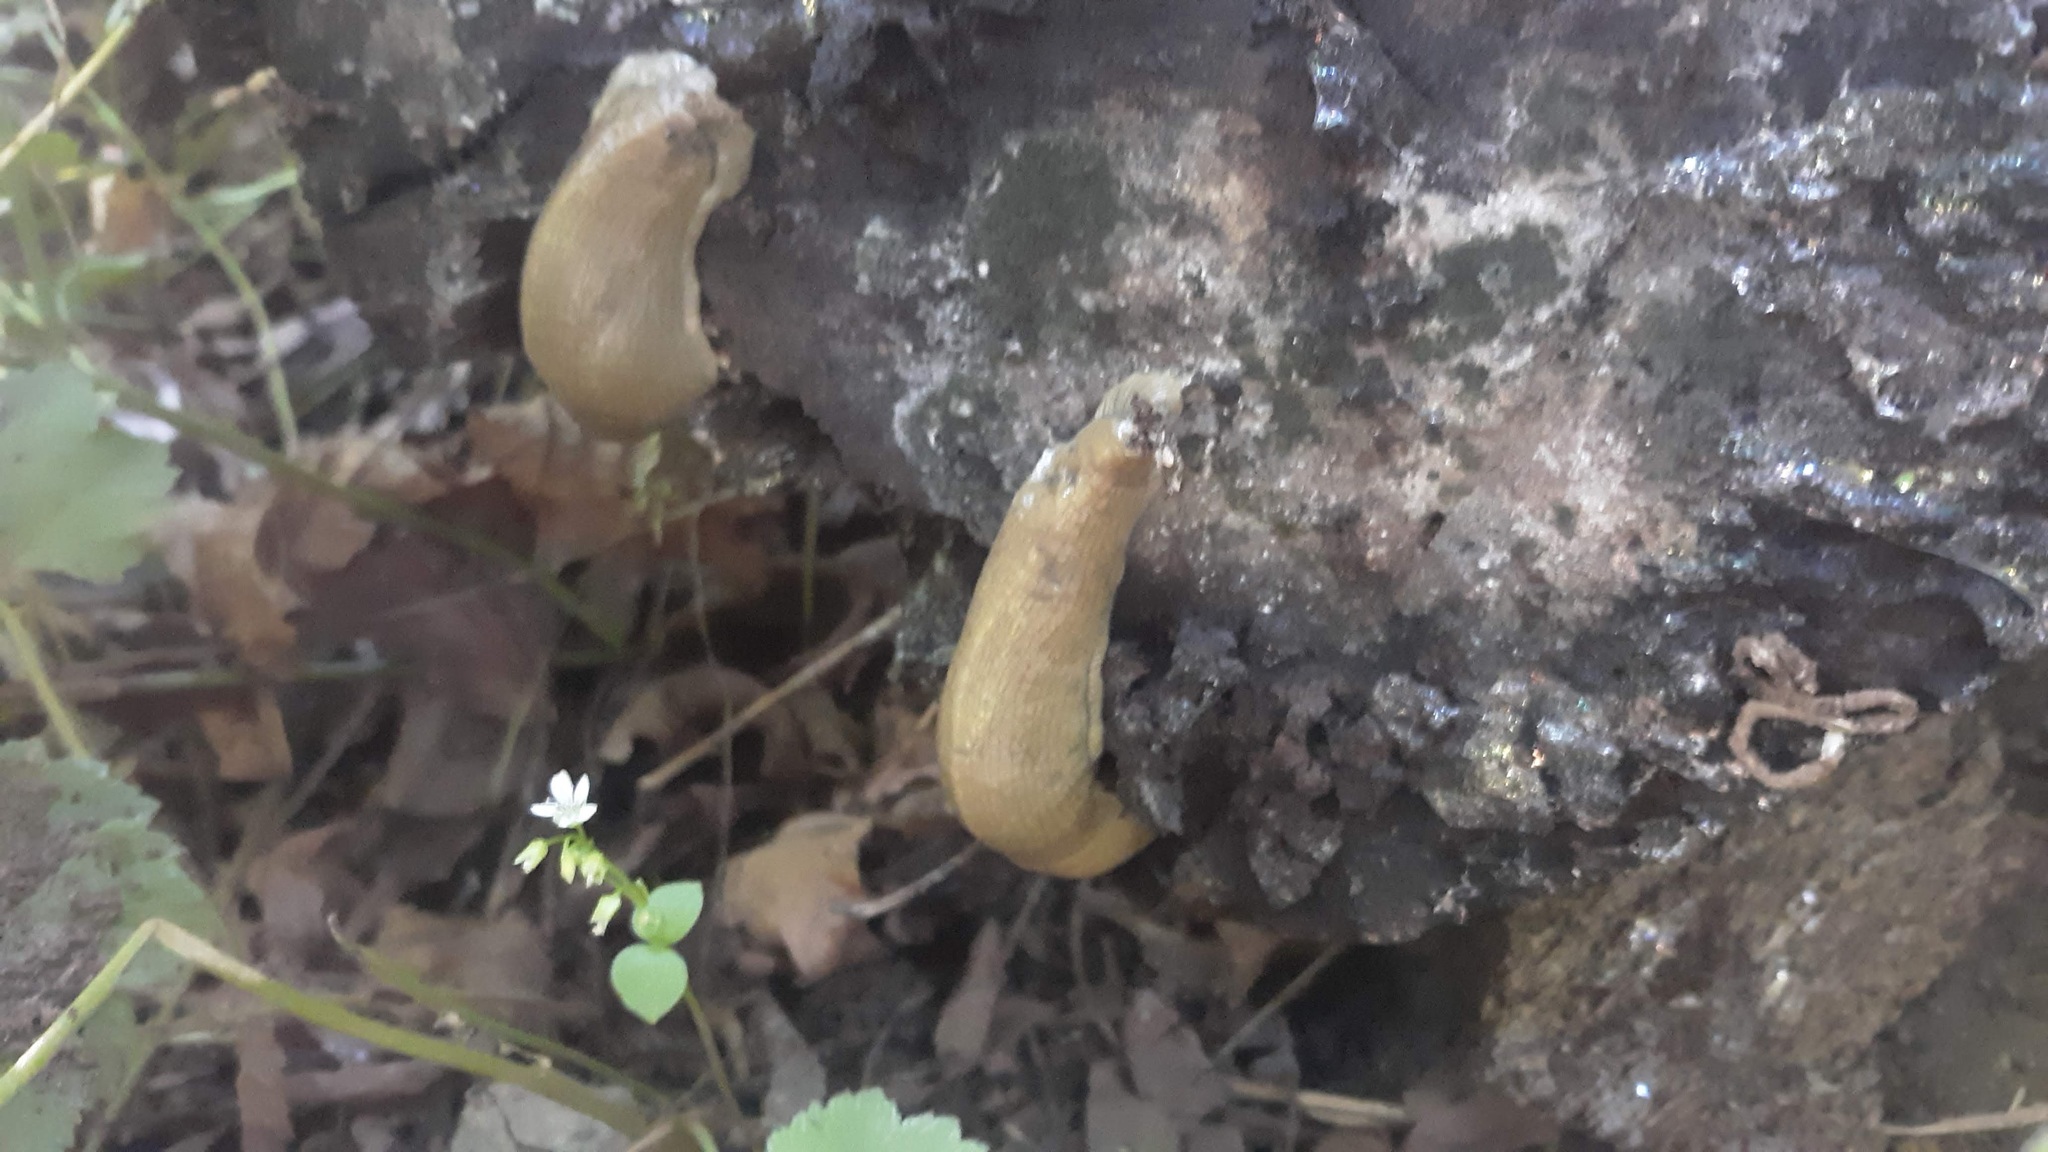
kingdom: Animalia
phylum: Mollusca
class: Gastropoda
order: Stylommatophora
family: Ariolimacidae
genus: Ariolimax
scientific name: Ariolimax columbianus
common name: Pacific banana slug
